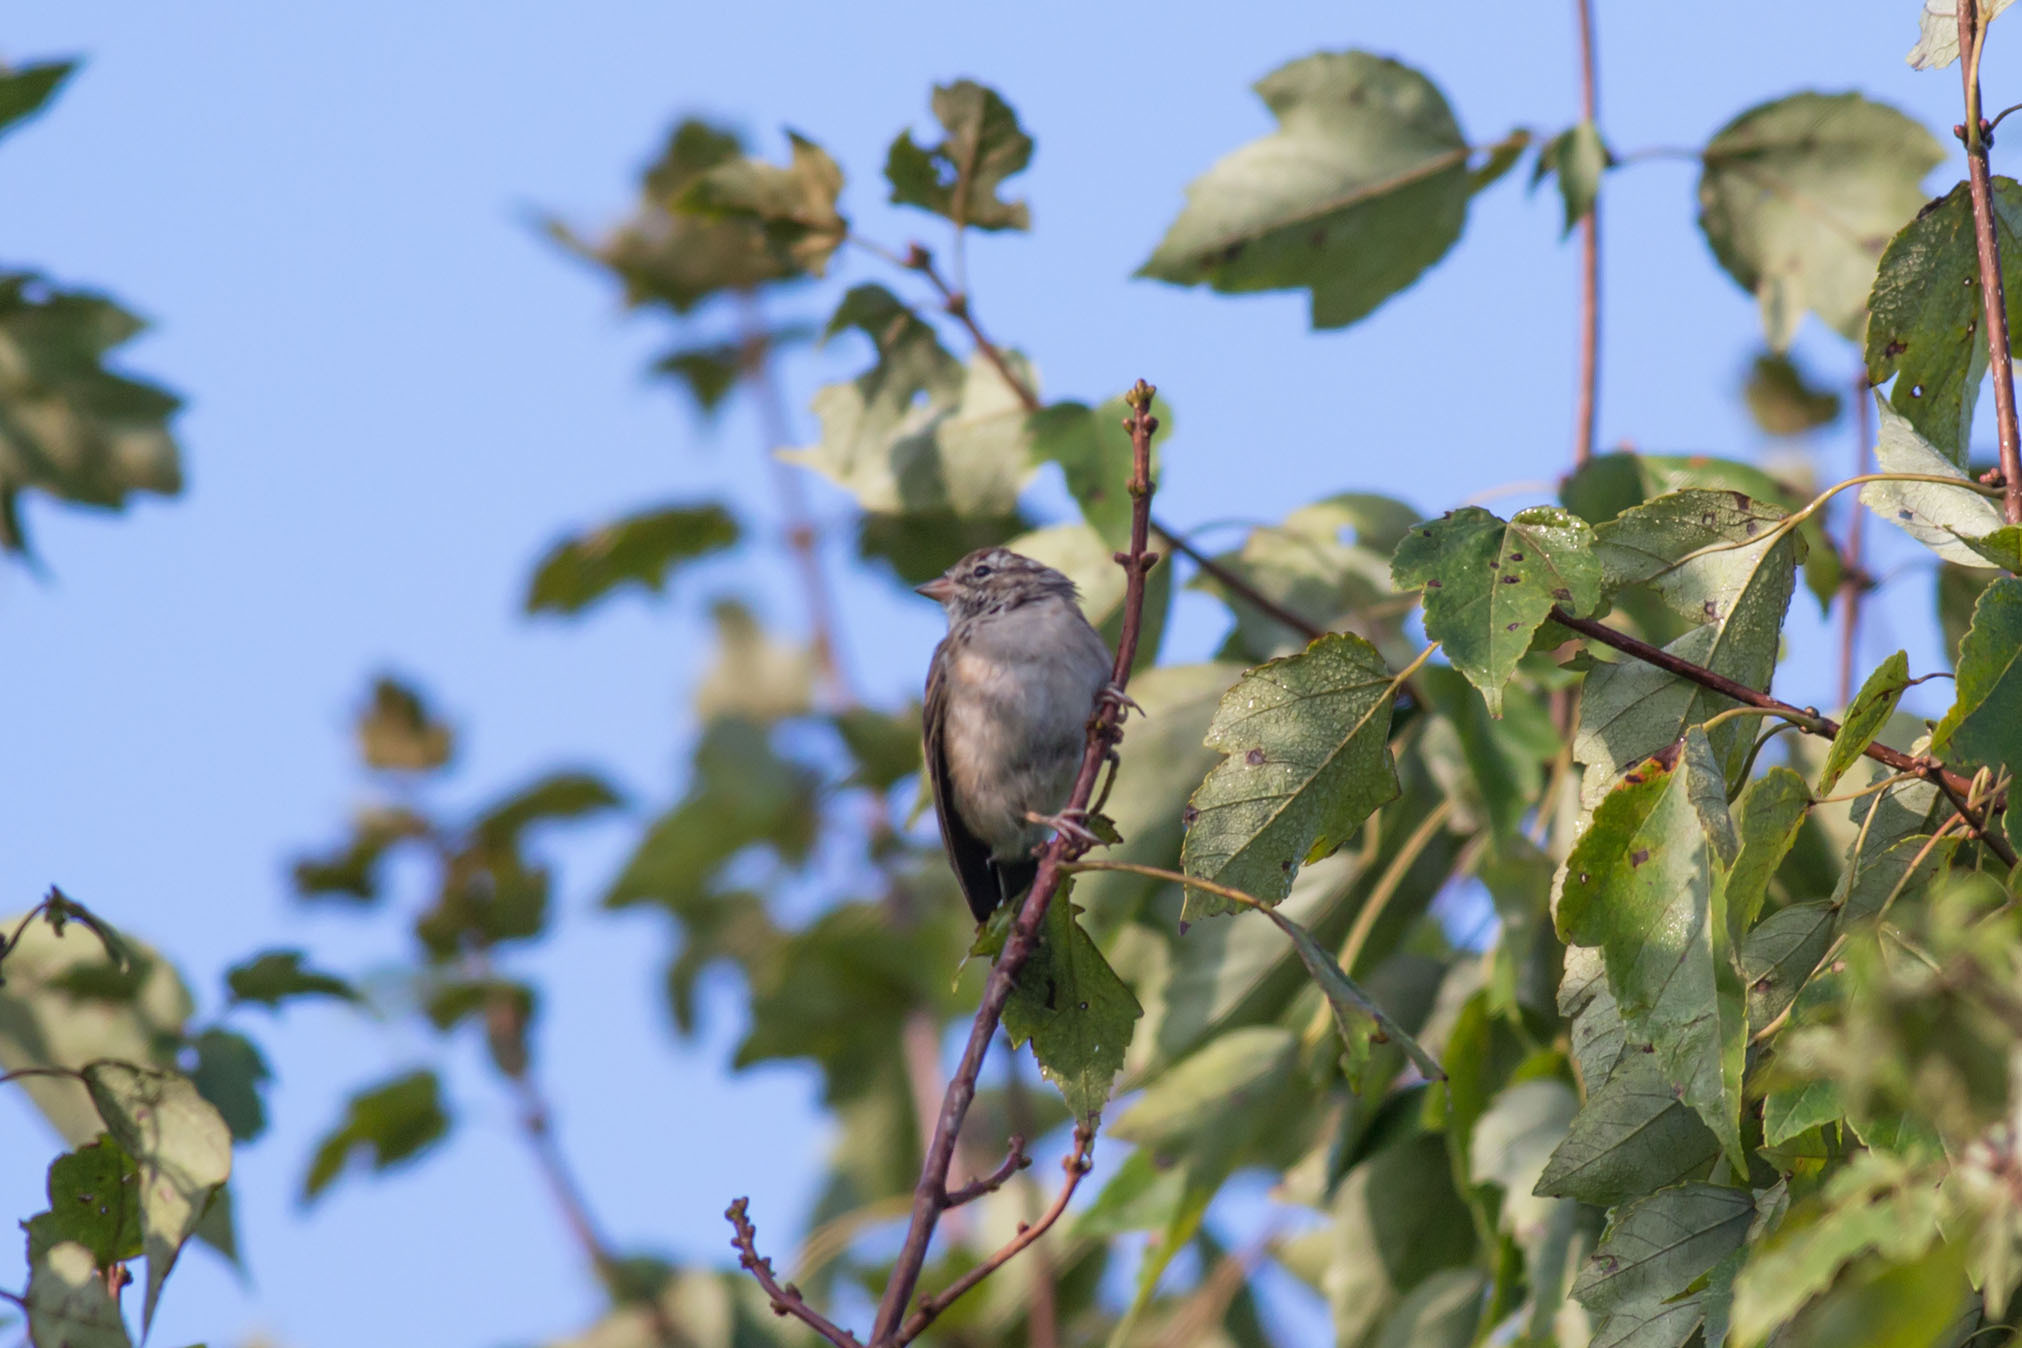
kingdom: Animalia
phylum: Chordata
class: Aves
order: Passeriformes
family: Passerellidae
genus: Spizella
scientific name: Spizella passerina
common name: Chipping sparrow
